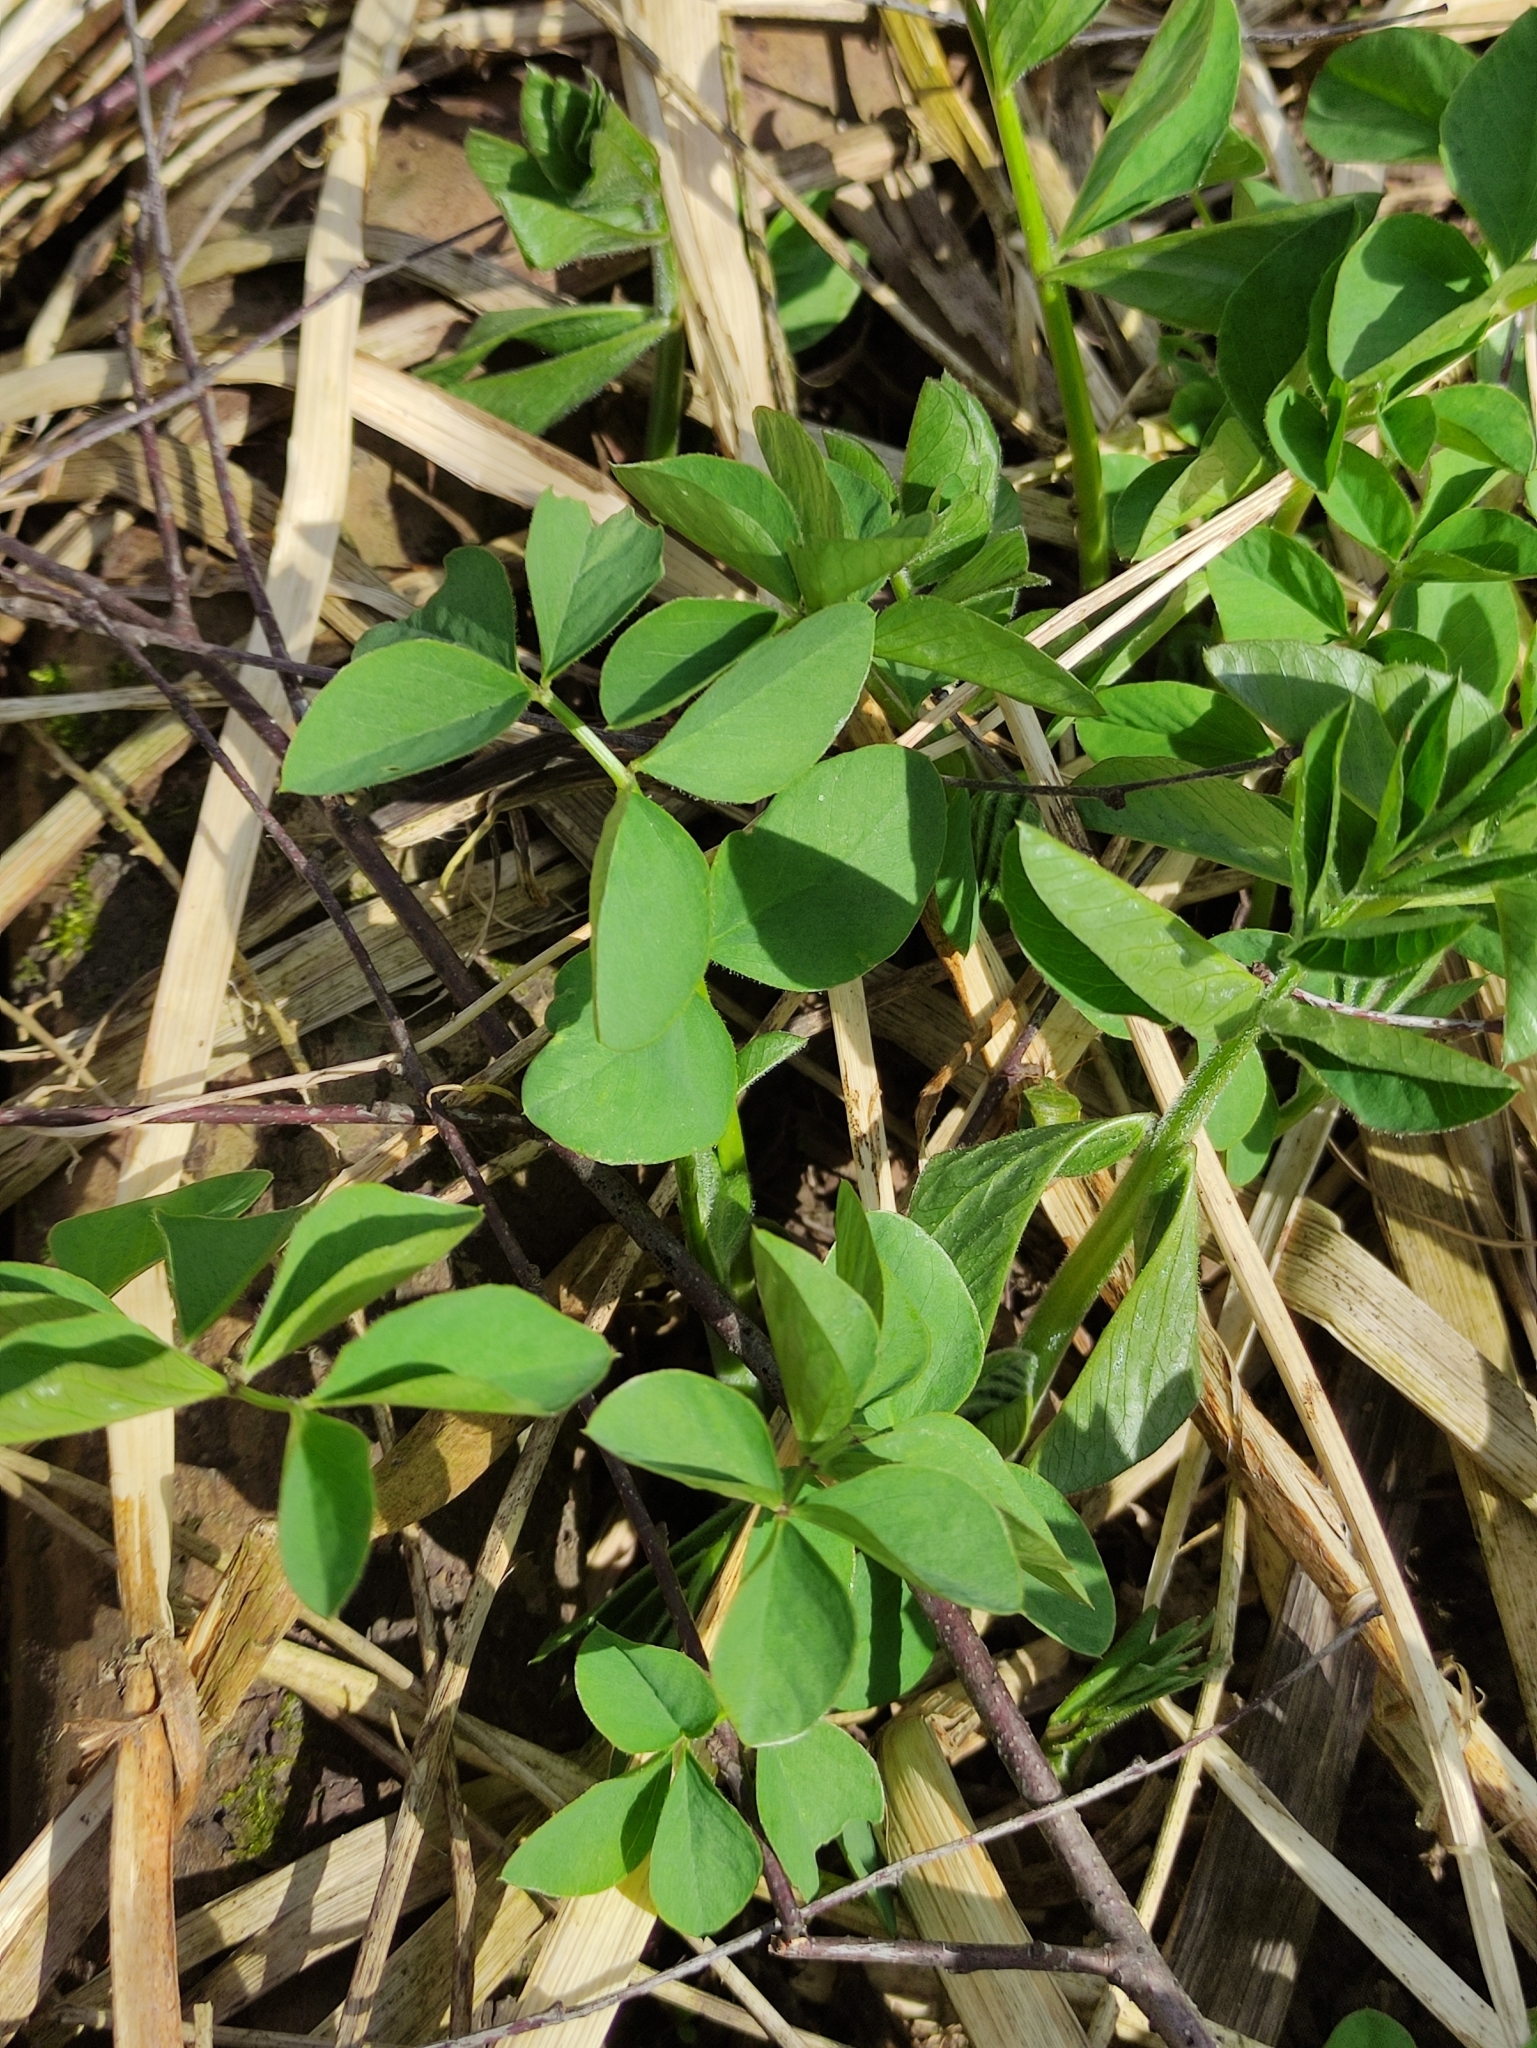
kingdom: Plantae
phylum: Tracheophyta
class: Magnoliopsida
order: Fabales
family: Fabaceae
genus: Galega
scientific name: Galega orientalis
